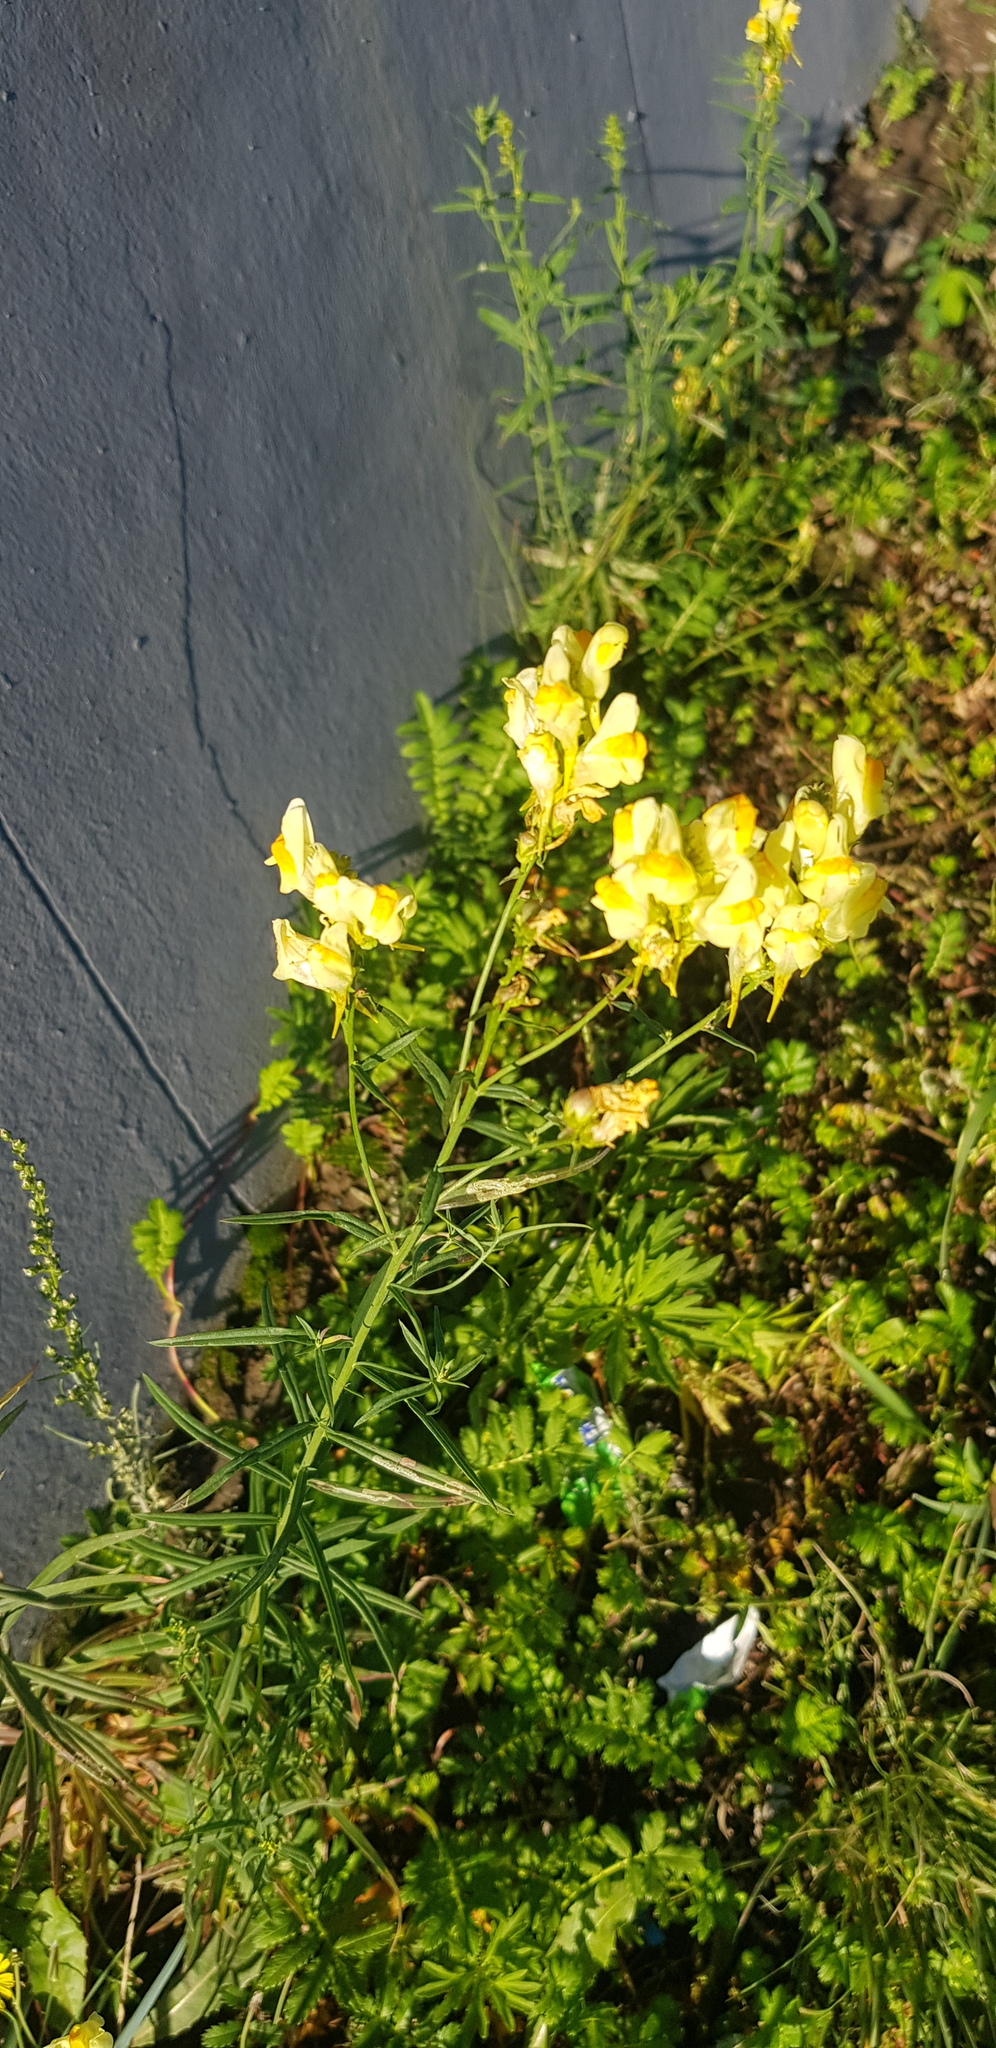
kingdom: Plantae
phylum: Tracheophyta
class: Magnoliopsida
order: Lamiales
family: Plantaginaceae
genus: Linaria
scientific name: Linaria buriatica
